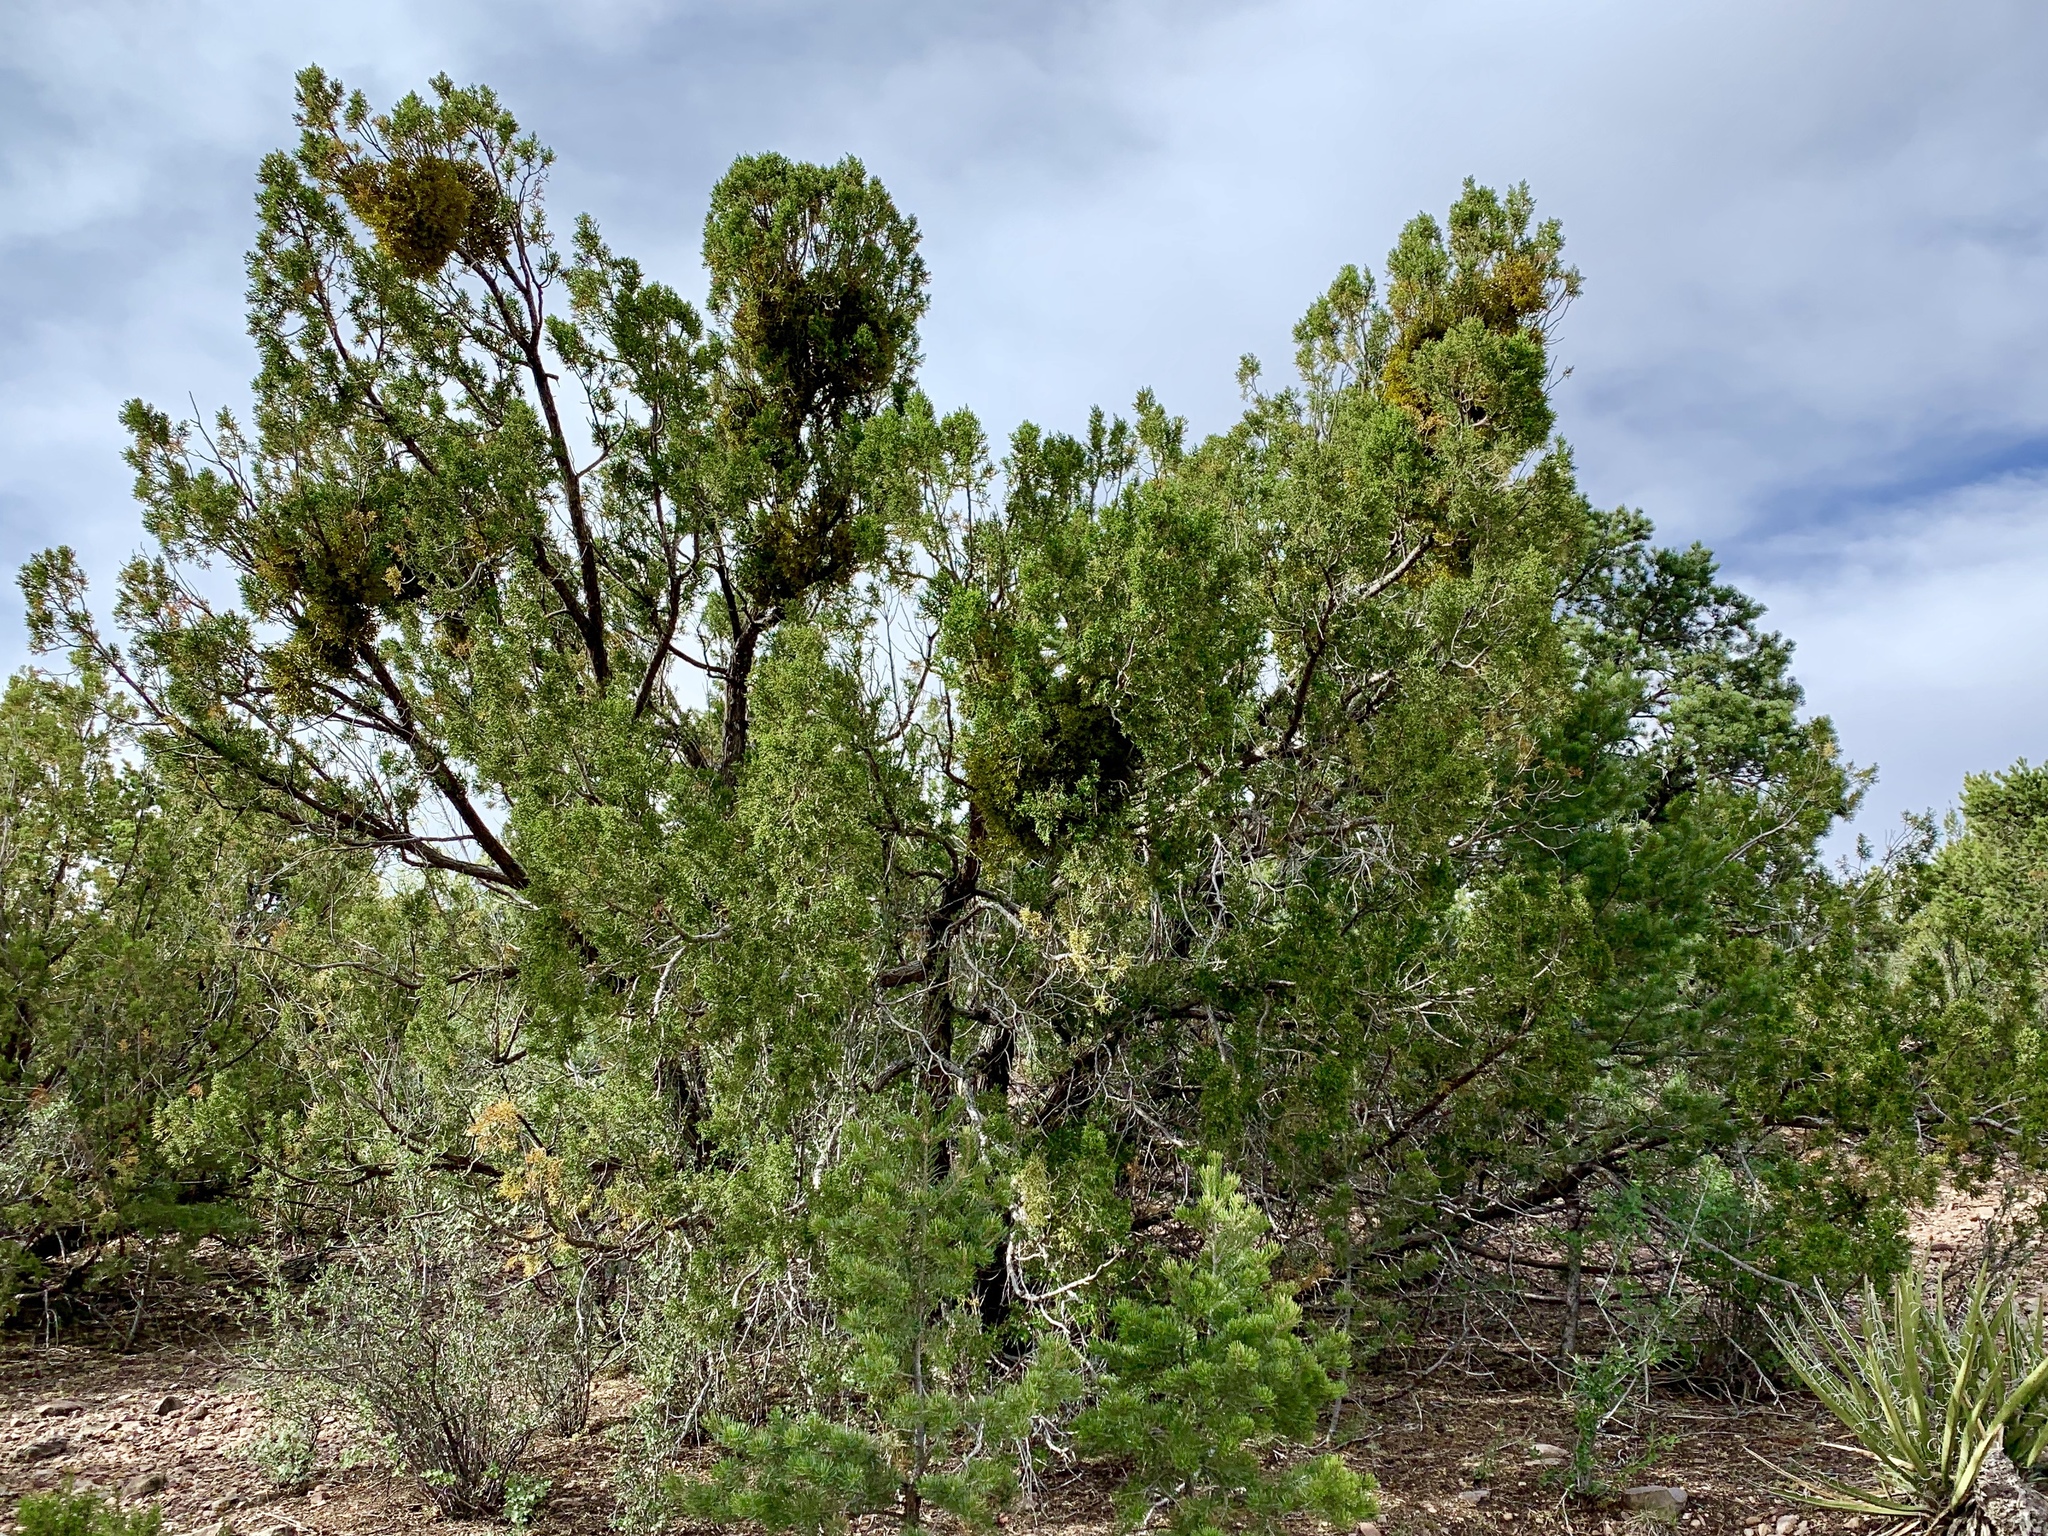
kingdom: Plantae
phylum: Tracheophyta
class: Pinopsida
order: Pinales
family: Cupressaceae
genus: Juniperus
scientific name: Juniperus monosperma
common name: One-seed juniper
